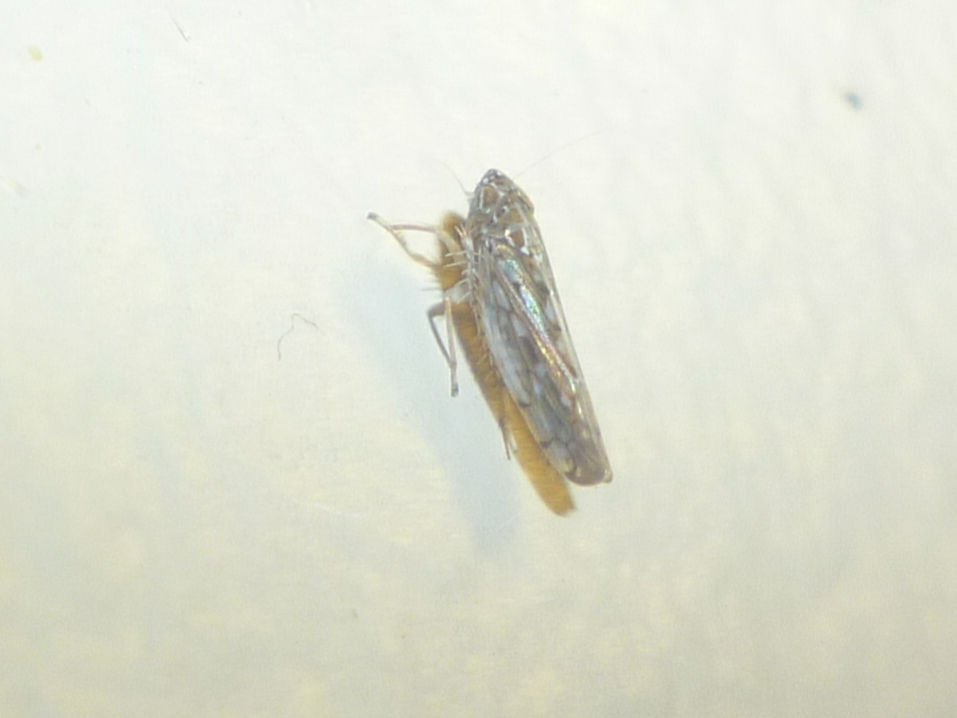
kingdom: Animalia
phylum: Arthropoda
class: Insecta
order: Hemiptera
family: Cicadellidae
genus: Osbornellus
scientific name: Osbornellus clarus
